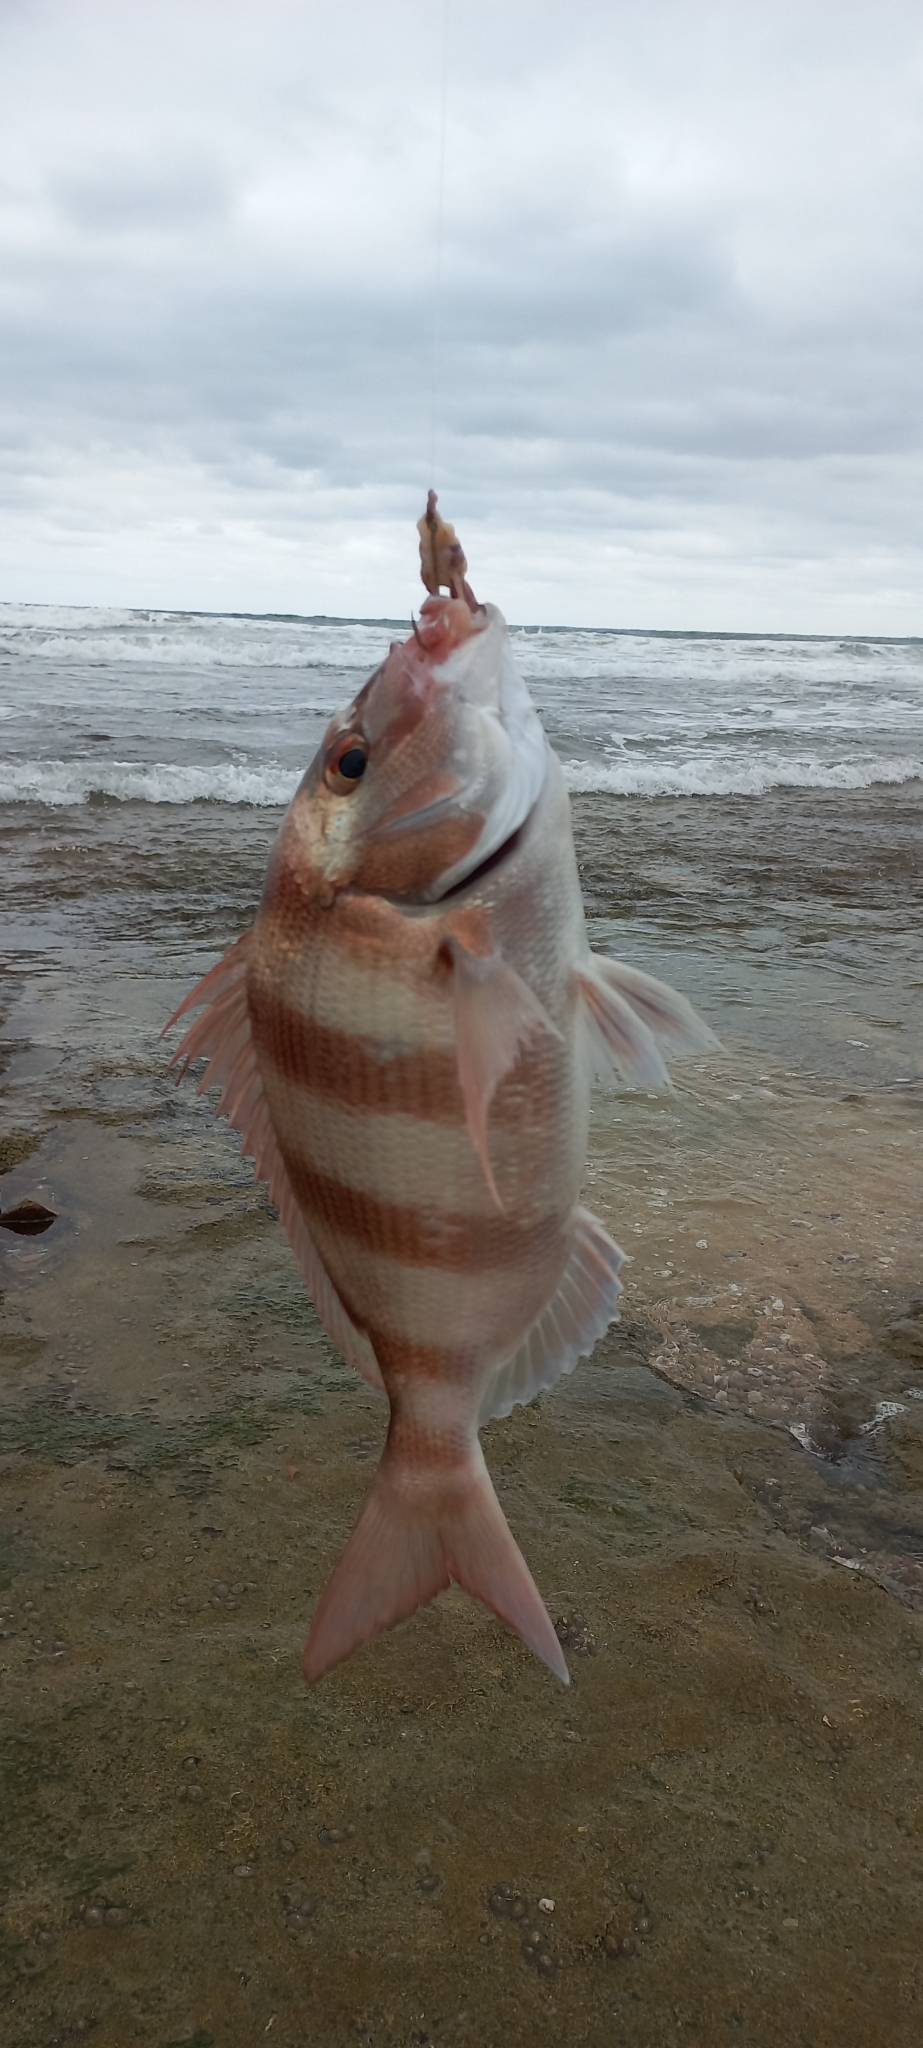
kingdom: Animalia
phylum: Chordata
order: Perciformes
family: Sparidae
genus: Cheimerius
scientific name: Cheimerius nufar
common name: Soldier
